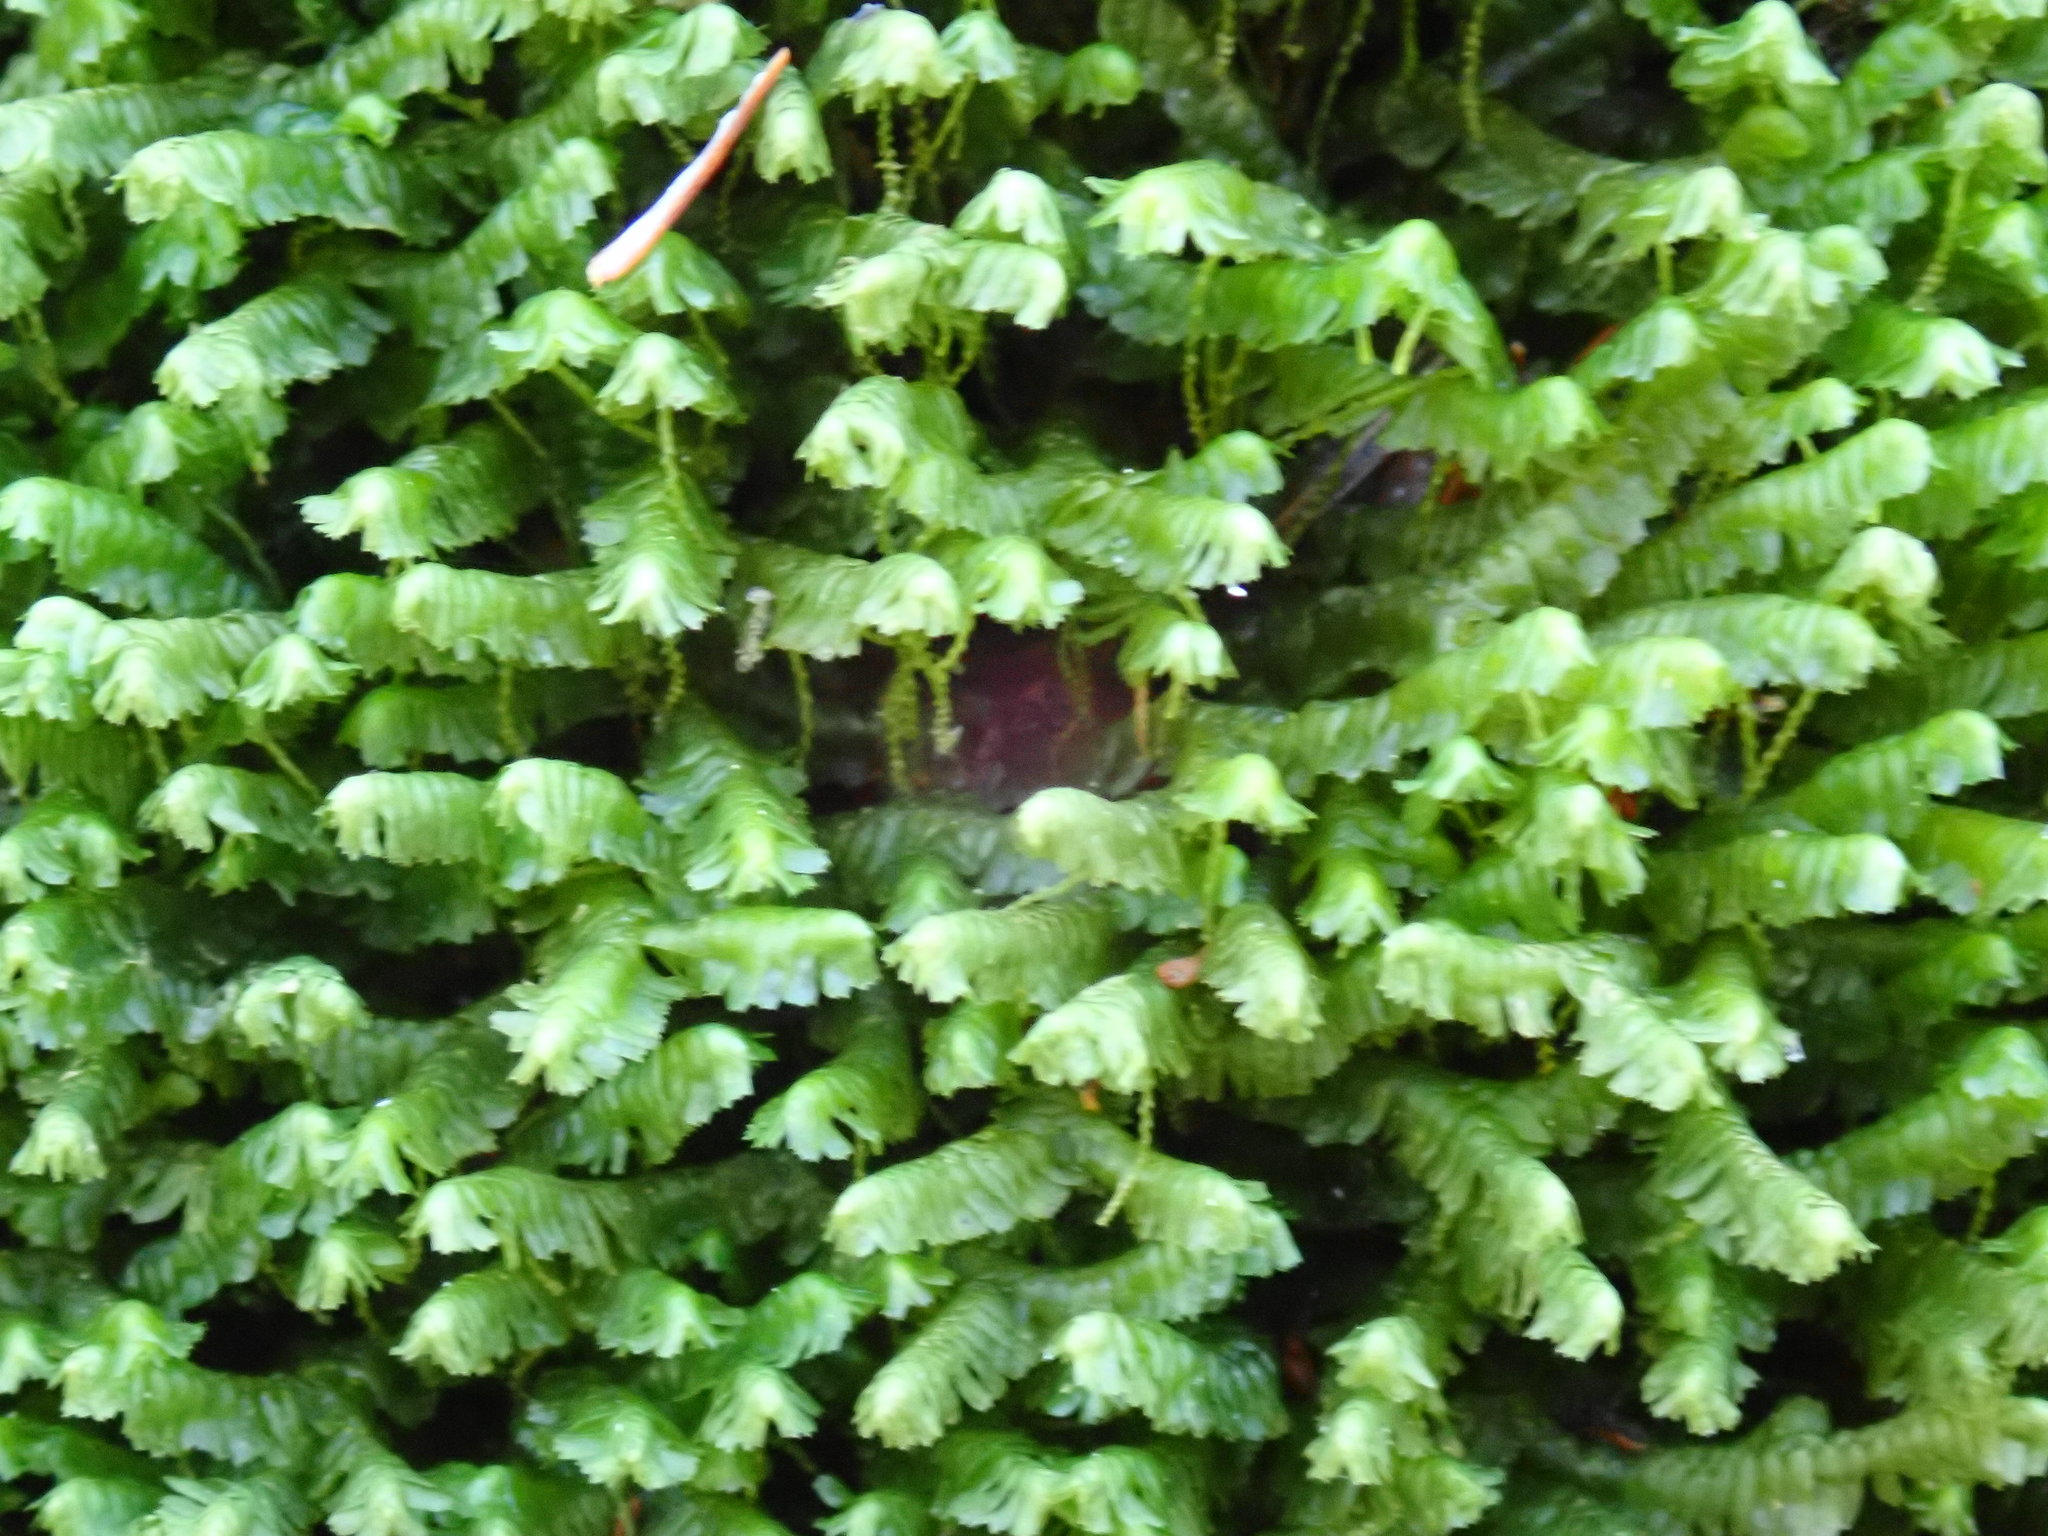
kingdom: Plantae
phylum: Marchantiophyta
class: Jungermanniopsida
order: Jungermanniales
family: Lepidoziaceae
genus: Bazzania
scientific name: Bazzania trilobata
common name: Three-lobed whipwort
